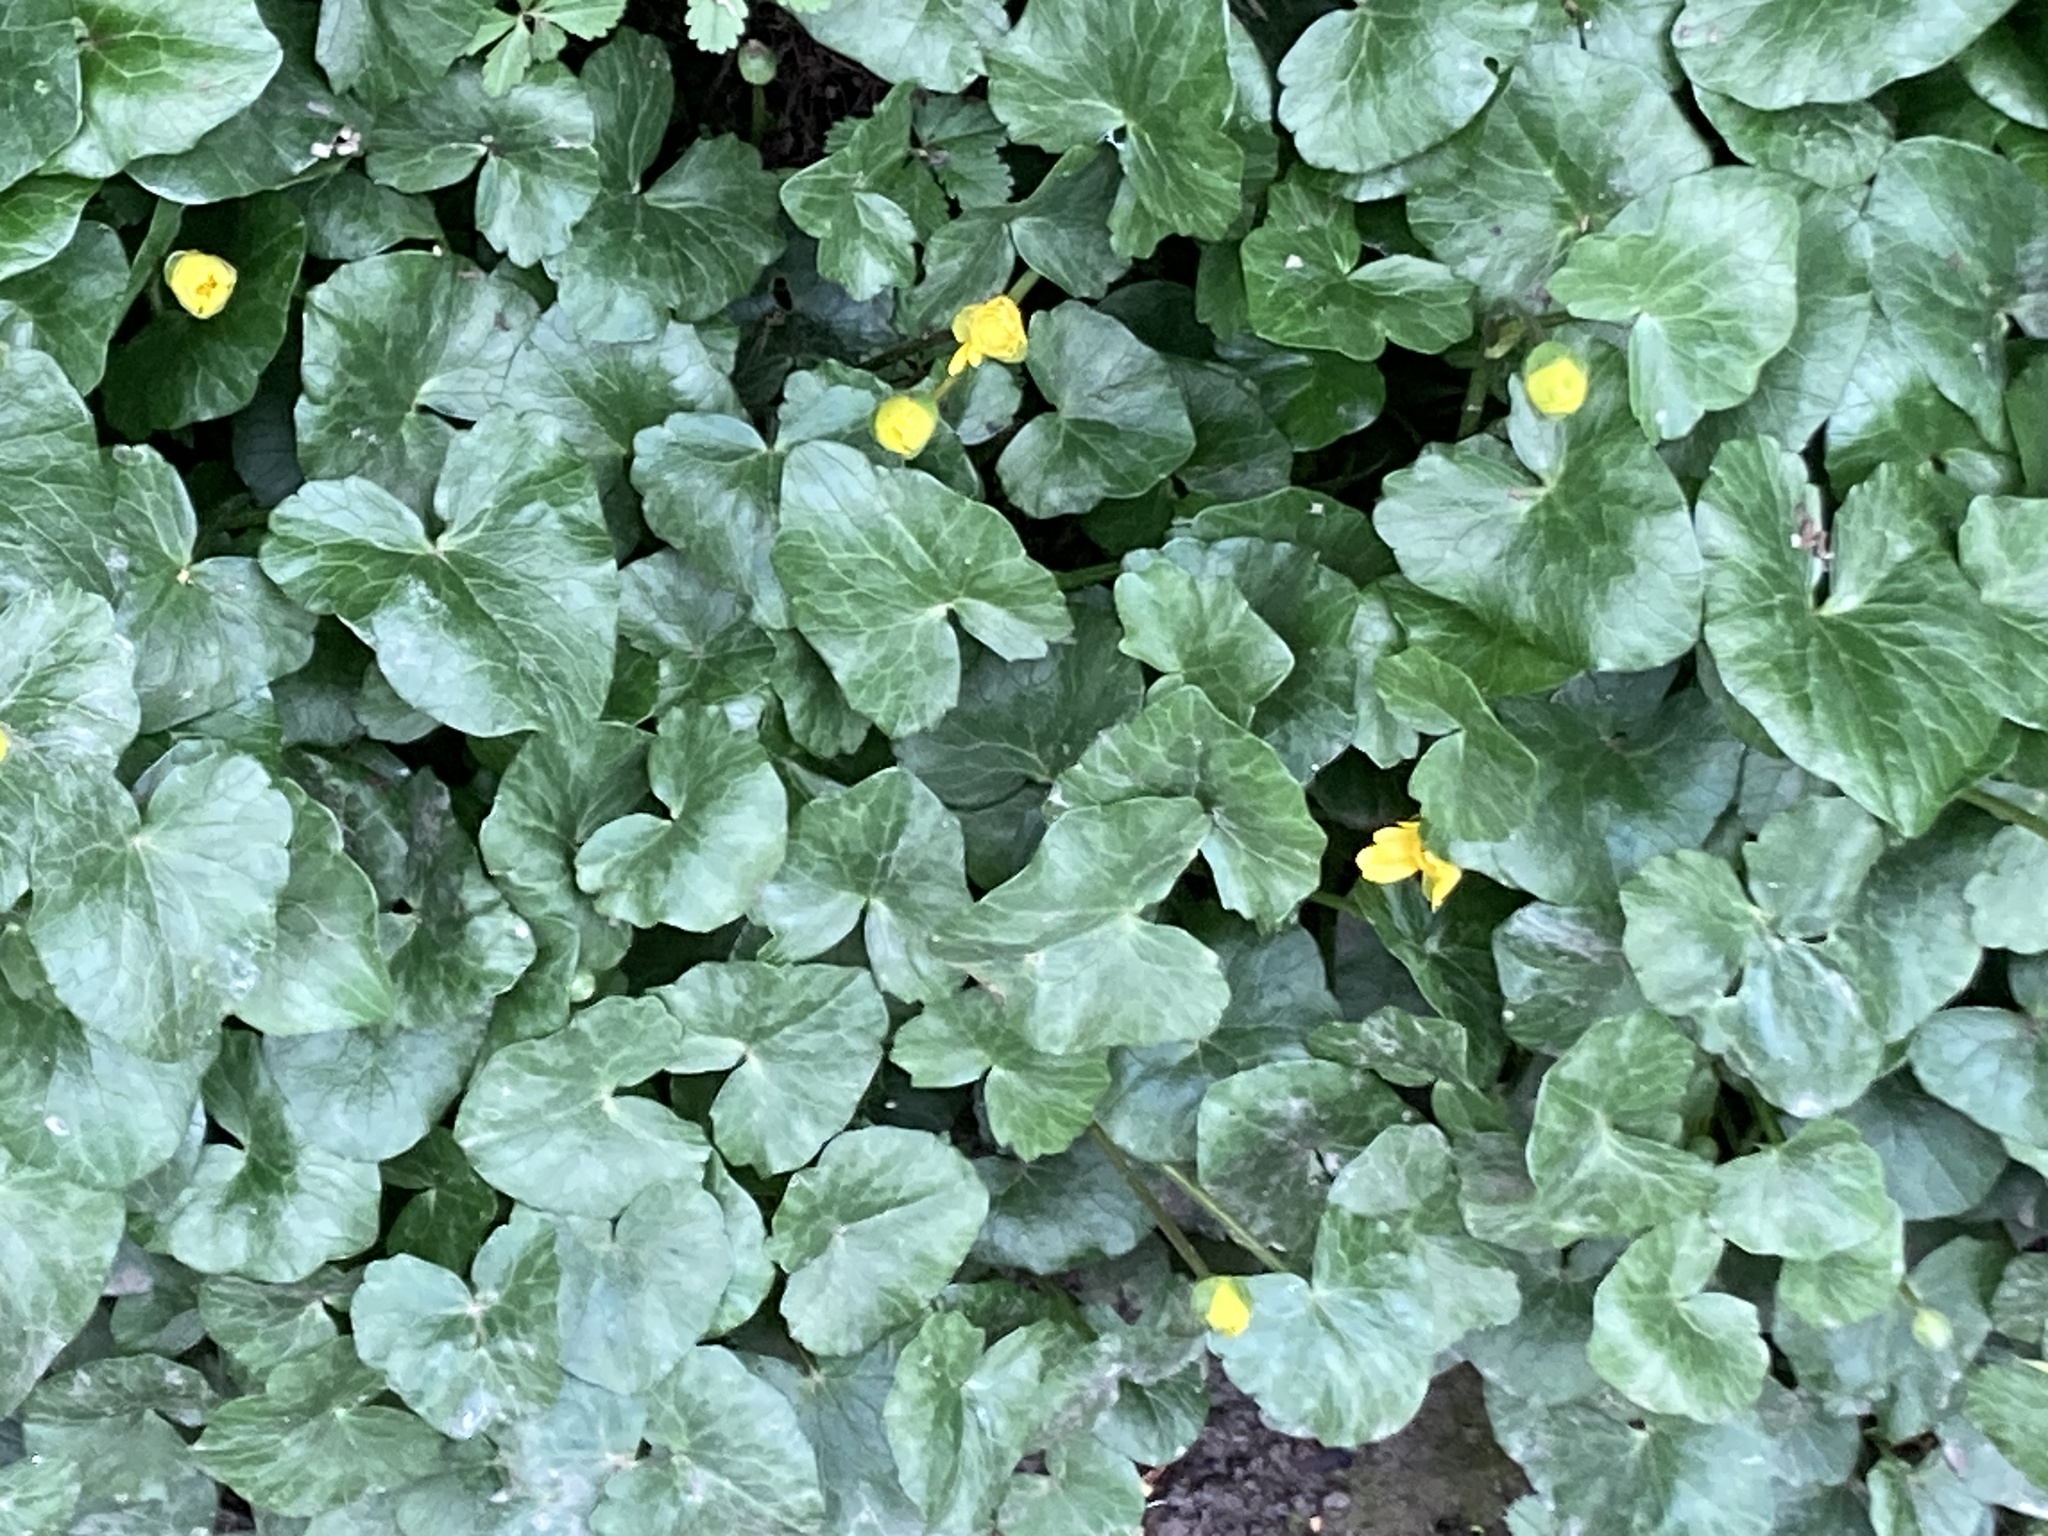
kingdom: Plantae
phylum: Tracheophyta
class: Magnoliopsida
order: Ranunculales
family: Ranunculaceae
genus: Ficaria
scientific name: Ficaria verna
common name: Lesser celandine
